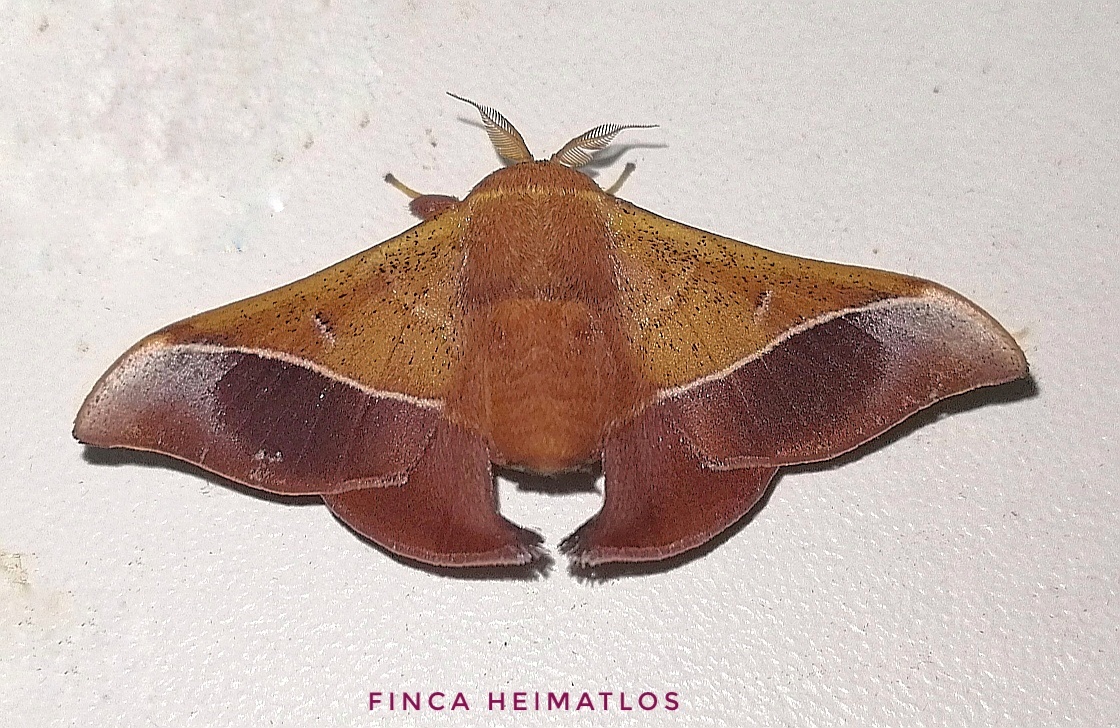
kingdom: Animalia
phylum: Arthropoda
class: Insecta
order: Lepidoptera
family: Mimallonidae
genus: Alheita
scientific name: Alheita caudina
